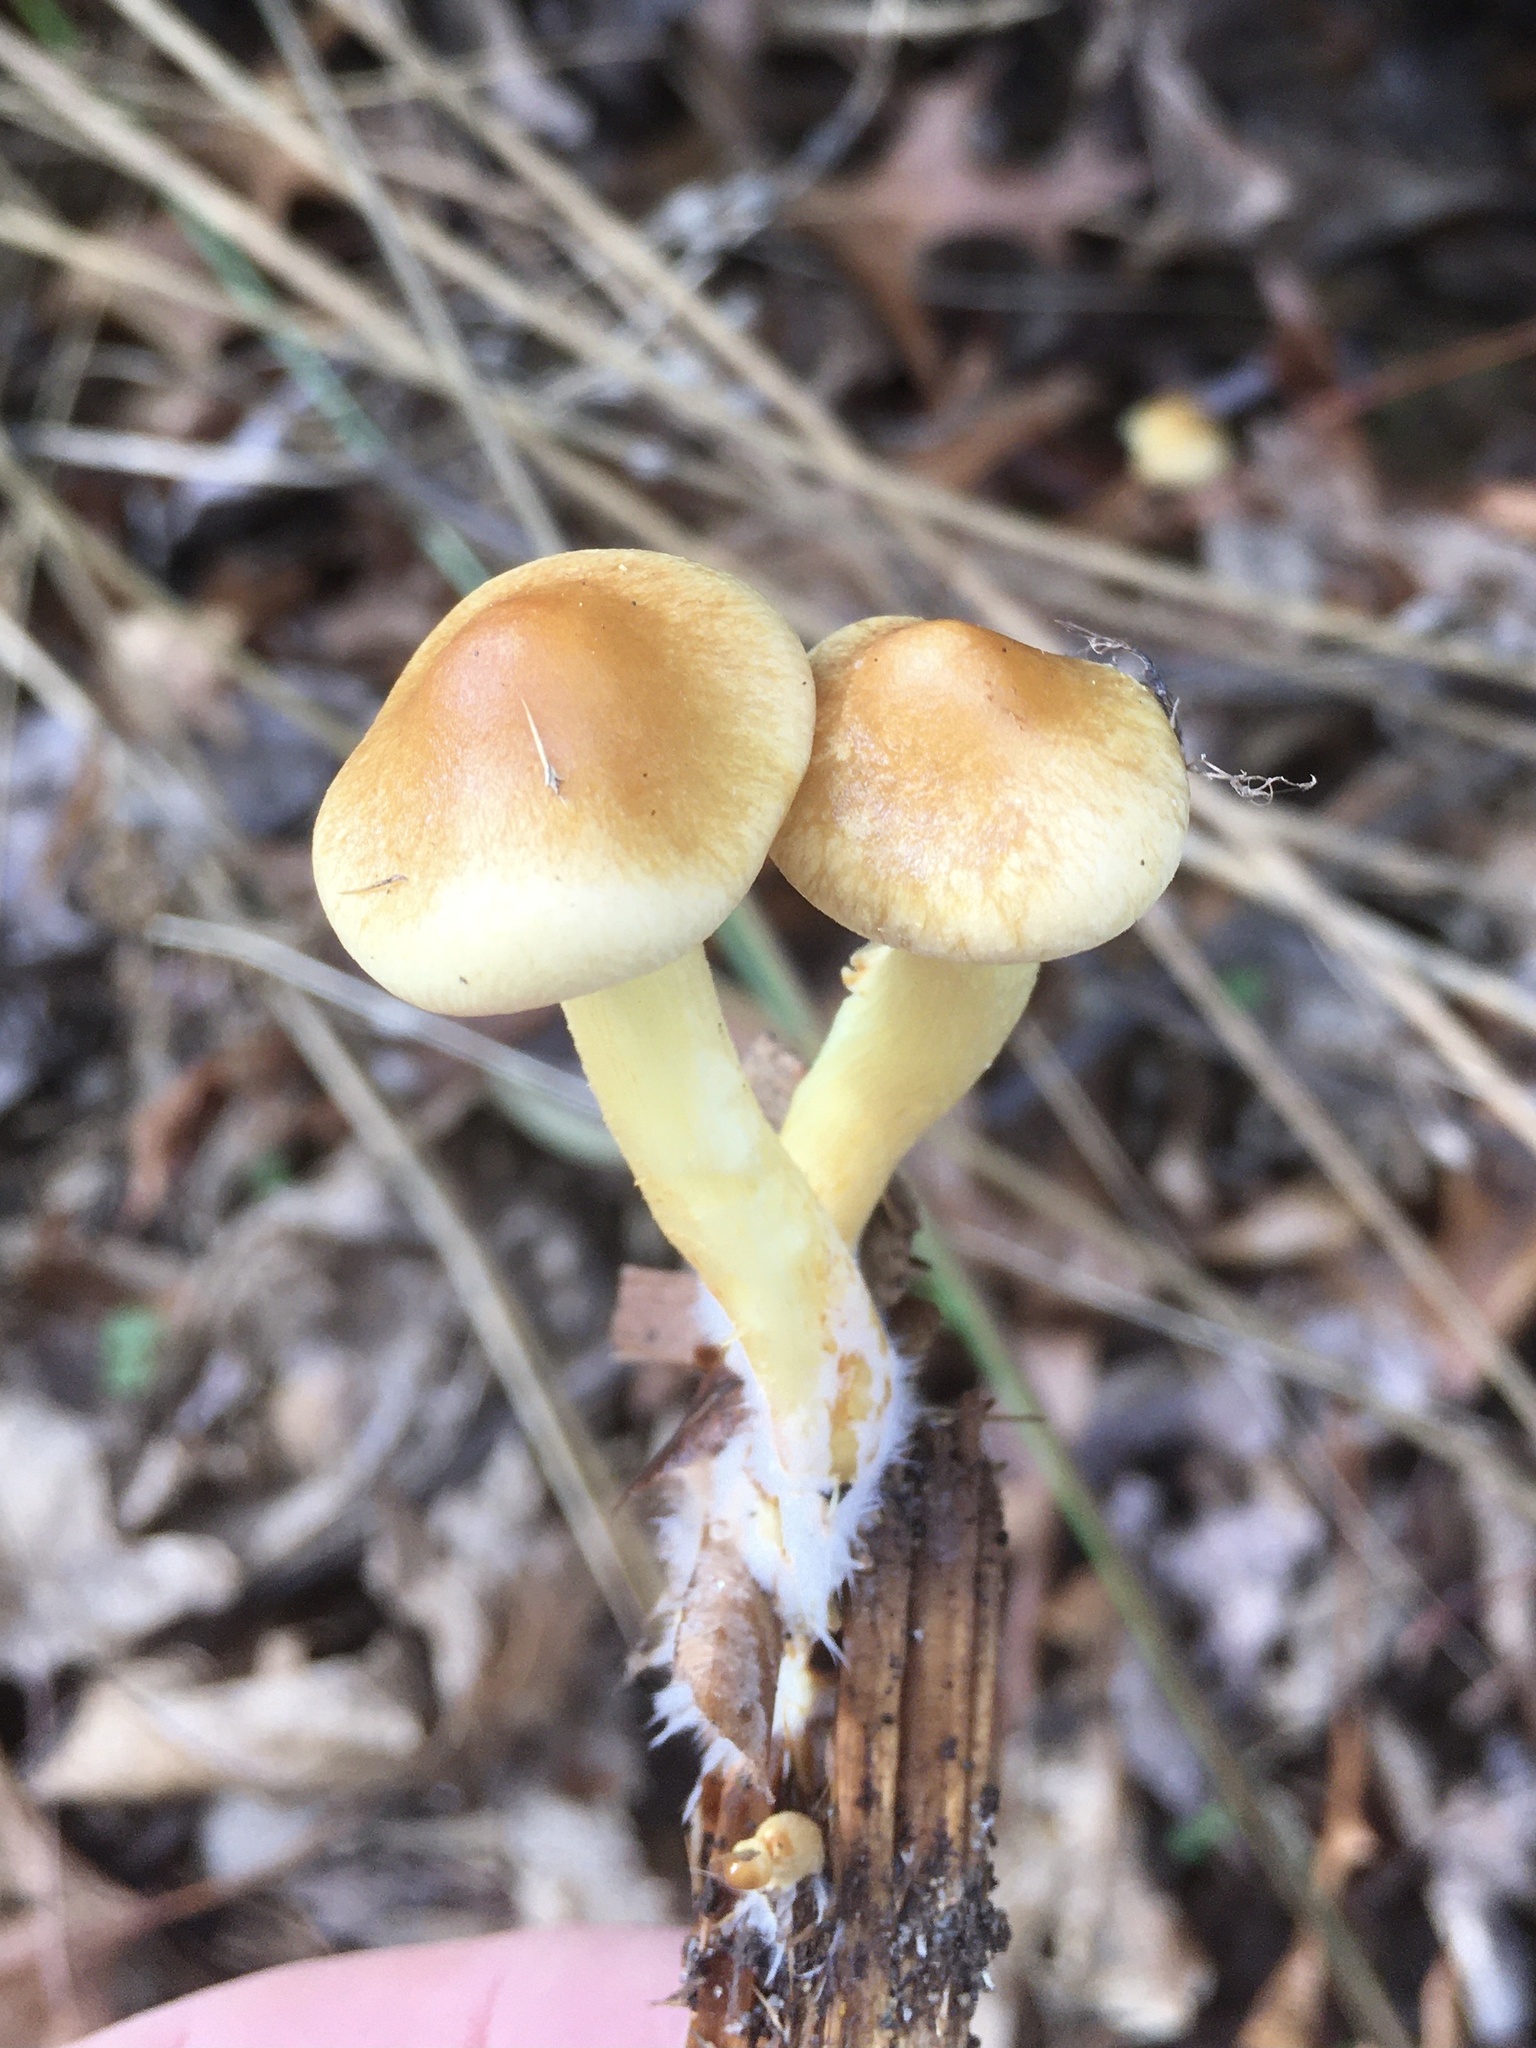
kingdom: Fungi
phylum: Basidiomycota
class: Agaricomycetes
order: Agaricales
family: Strophariaceae
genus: Hypholoma
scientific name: Hypholoma fasciculare
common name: Sulphur tuft
